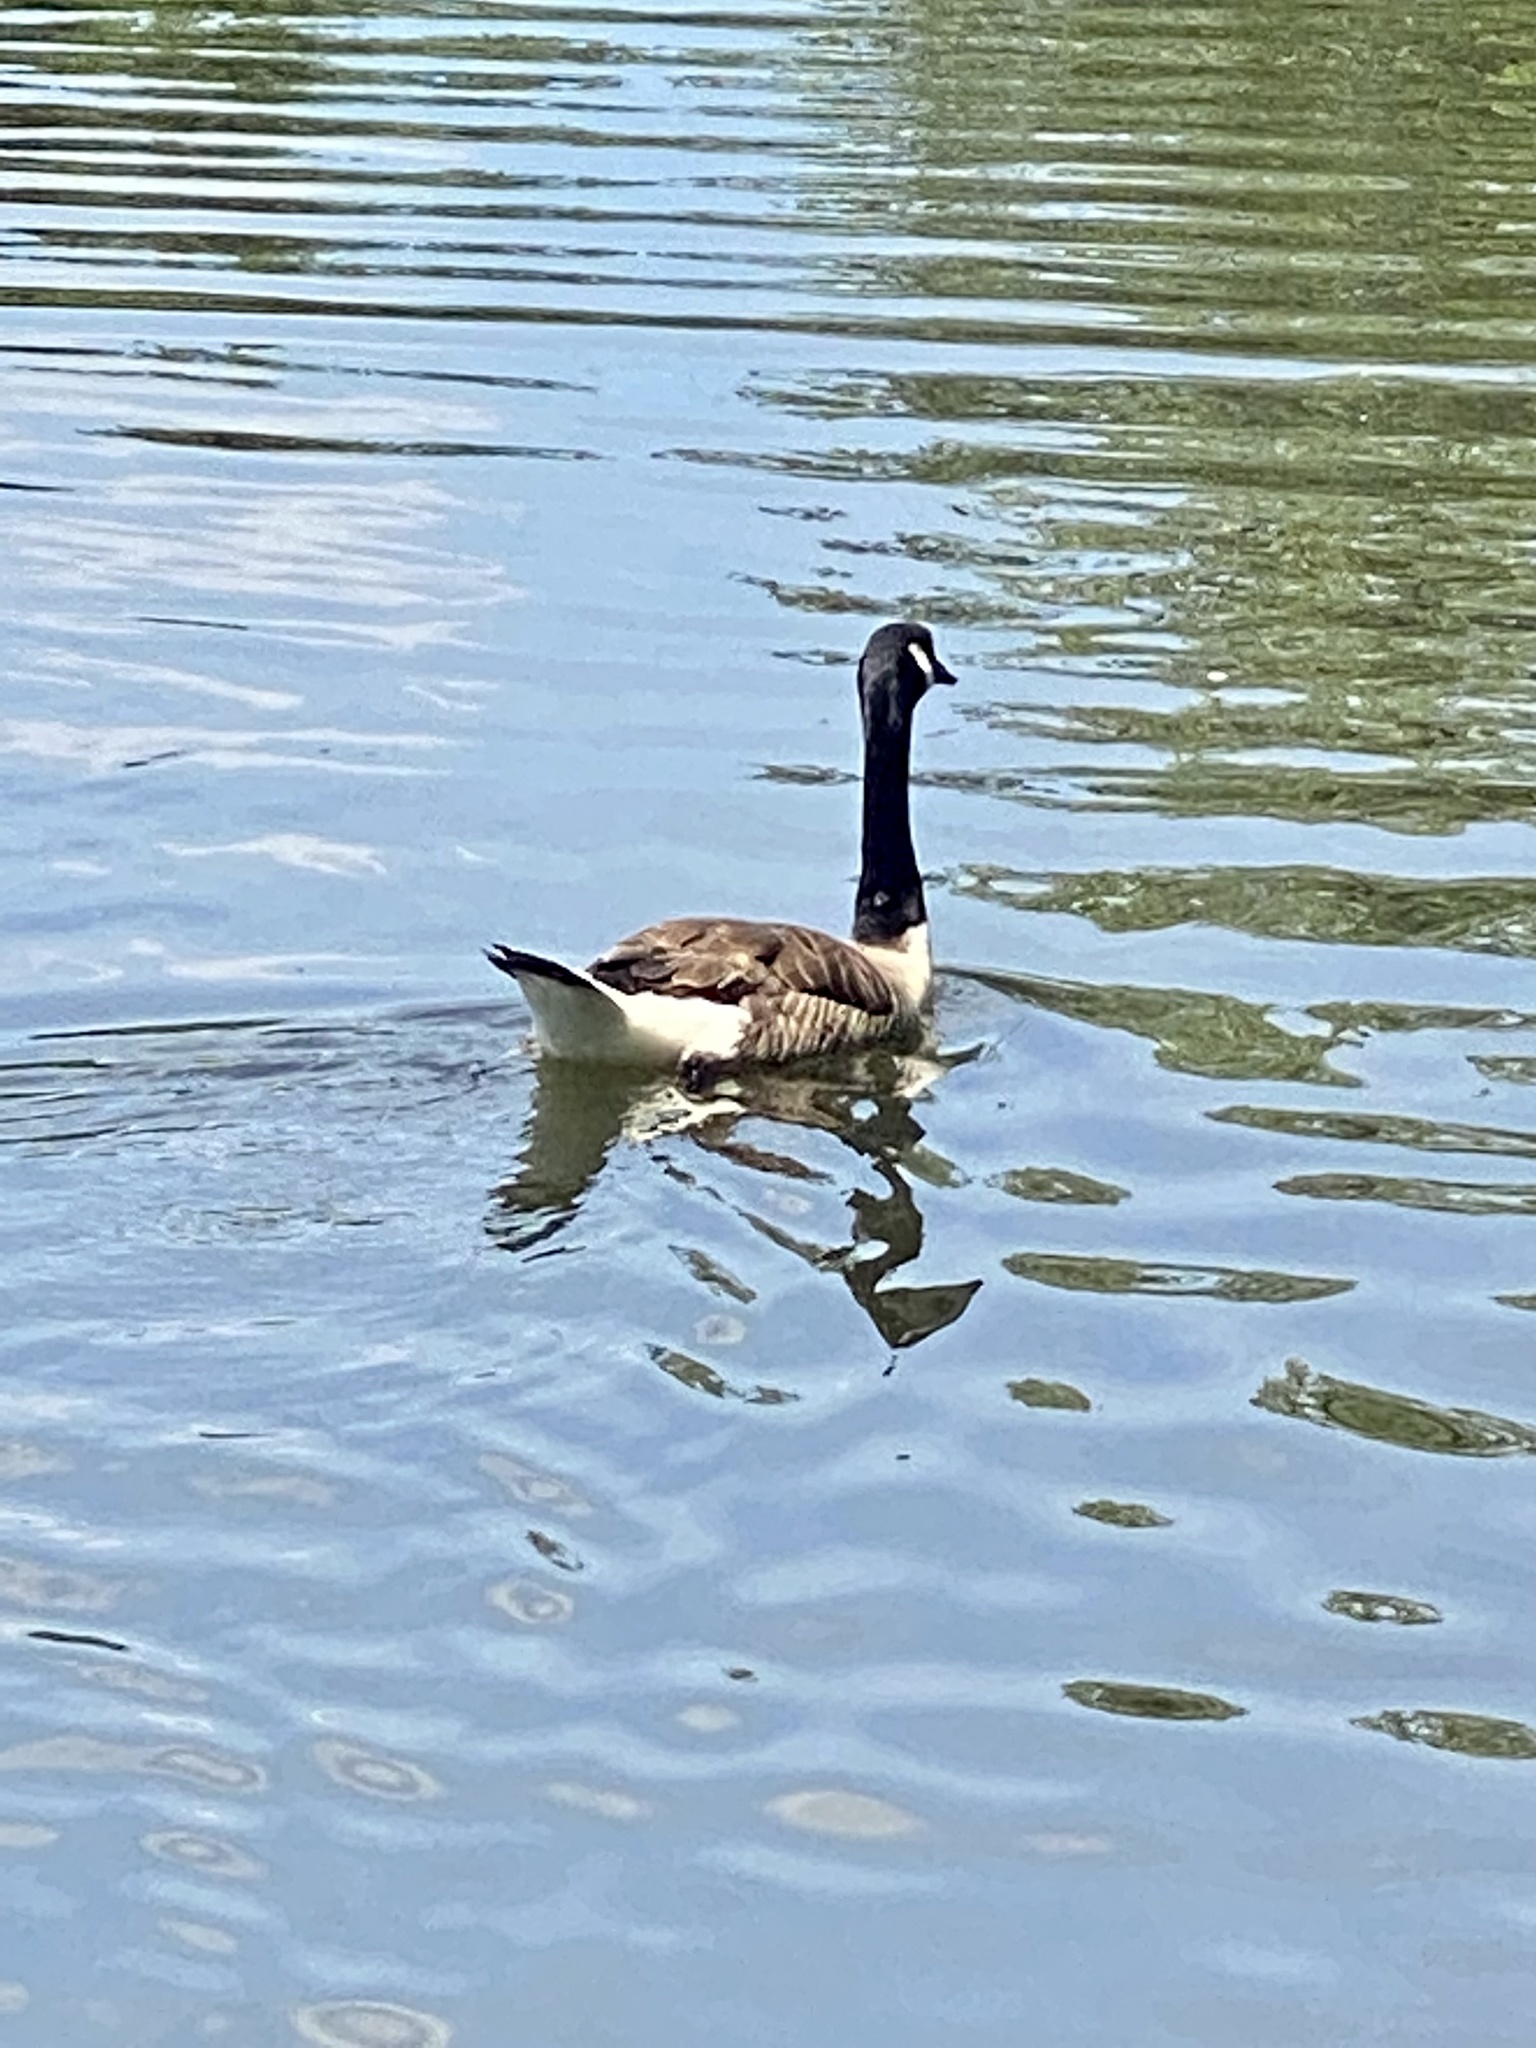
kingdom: Animalia
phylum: Chordata
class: Aves
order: Anseriformes
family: Anatidae
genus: Branta
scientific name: Branta canadensis
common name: Canada goose
